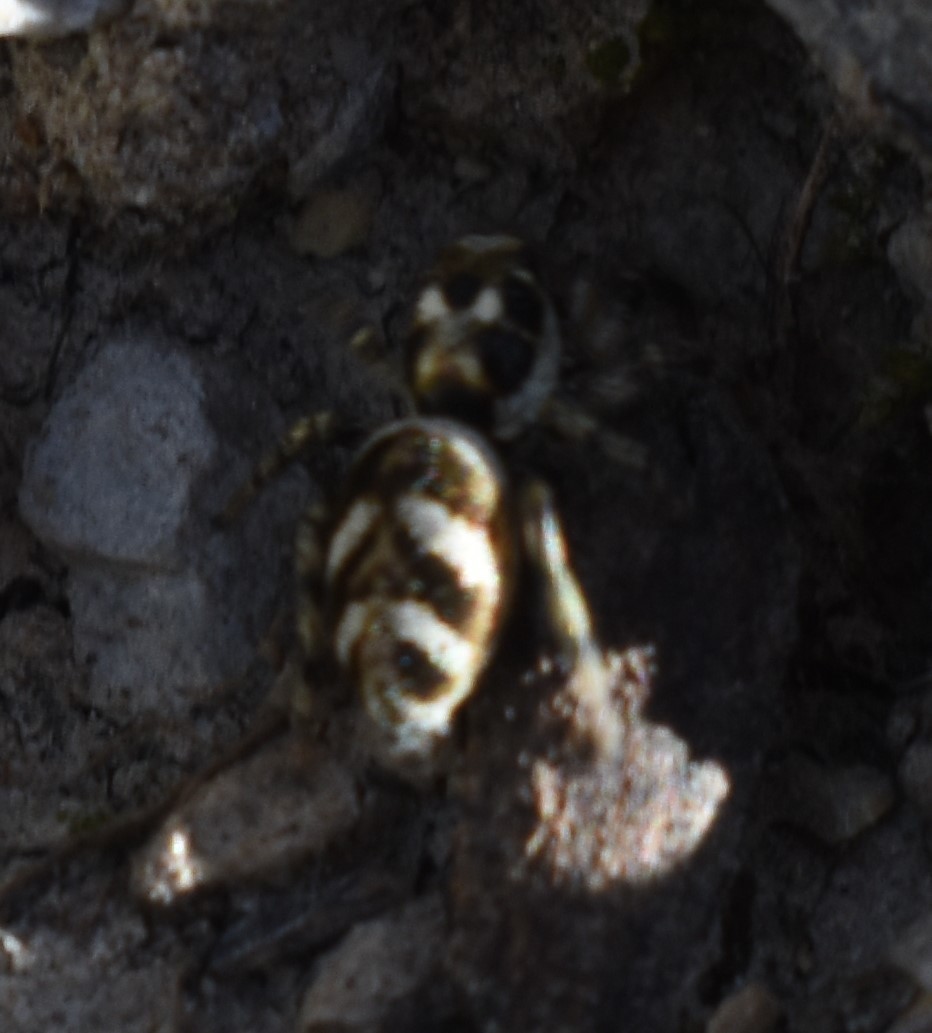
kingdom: Animalia
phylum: Arthropoda
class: Arachnida
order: Araneae
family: Salticidae
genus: Salticus
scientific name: Salticus scenicus
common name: Zebra jumper
